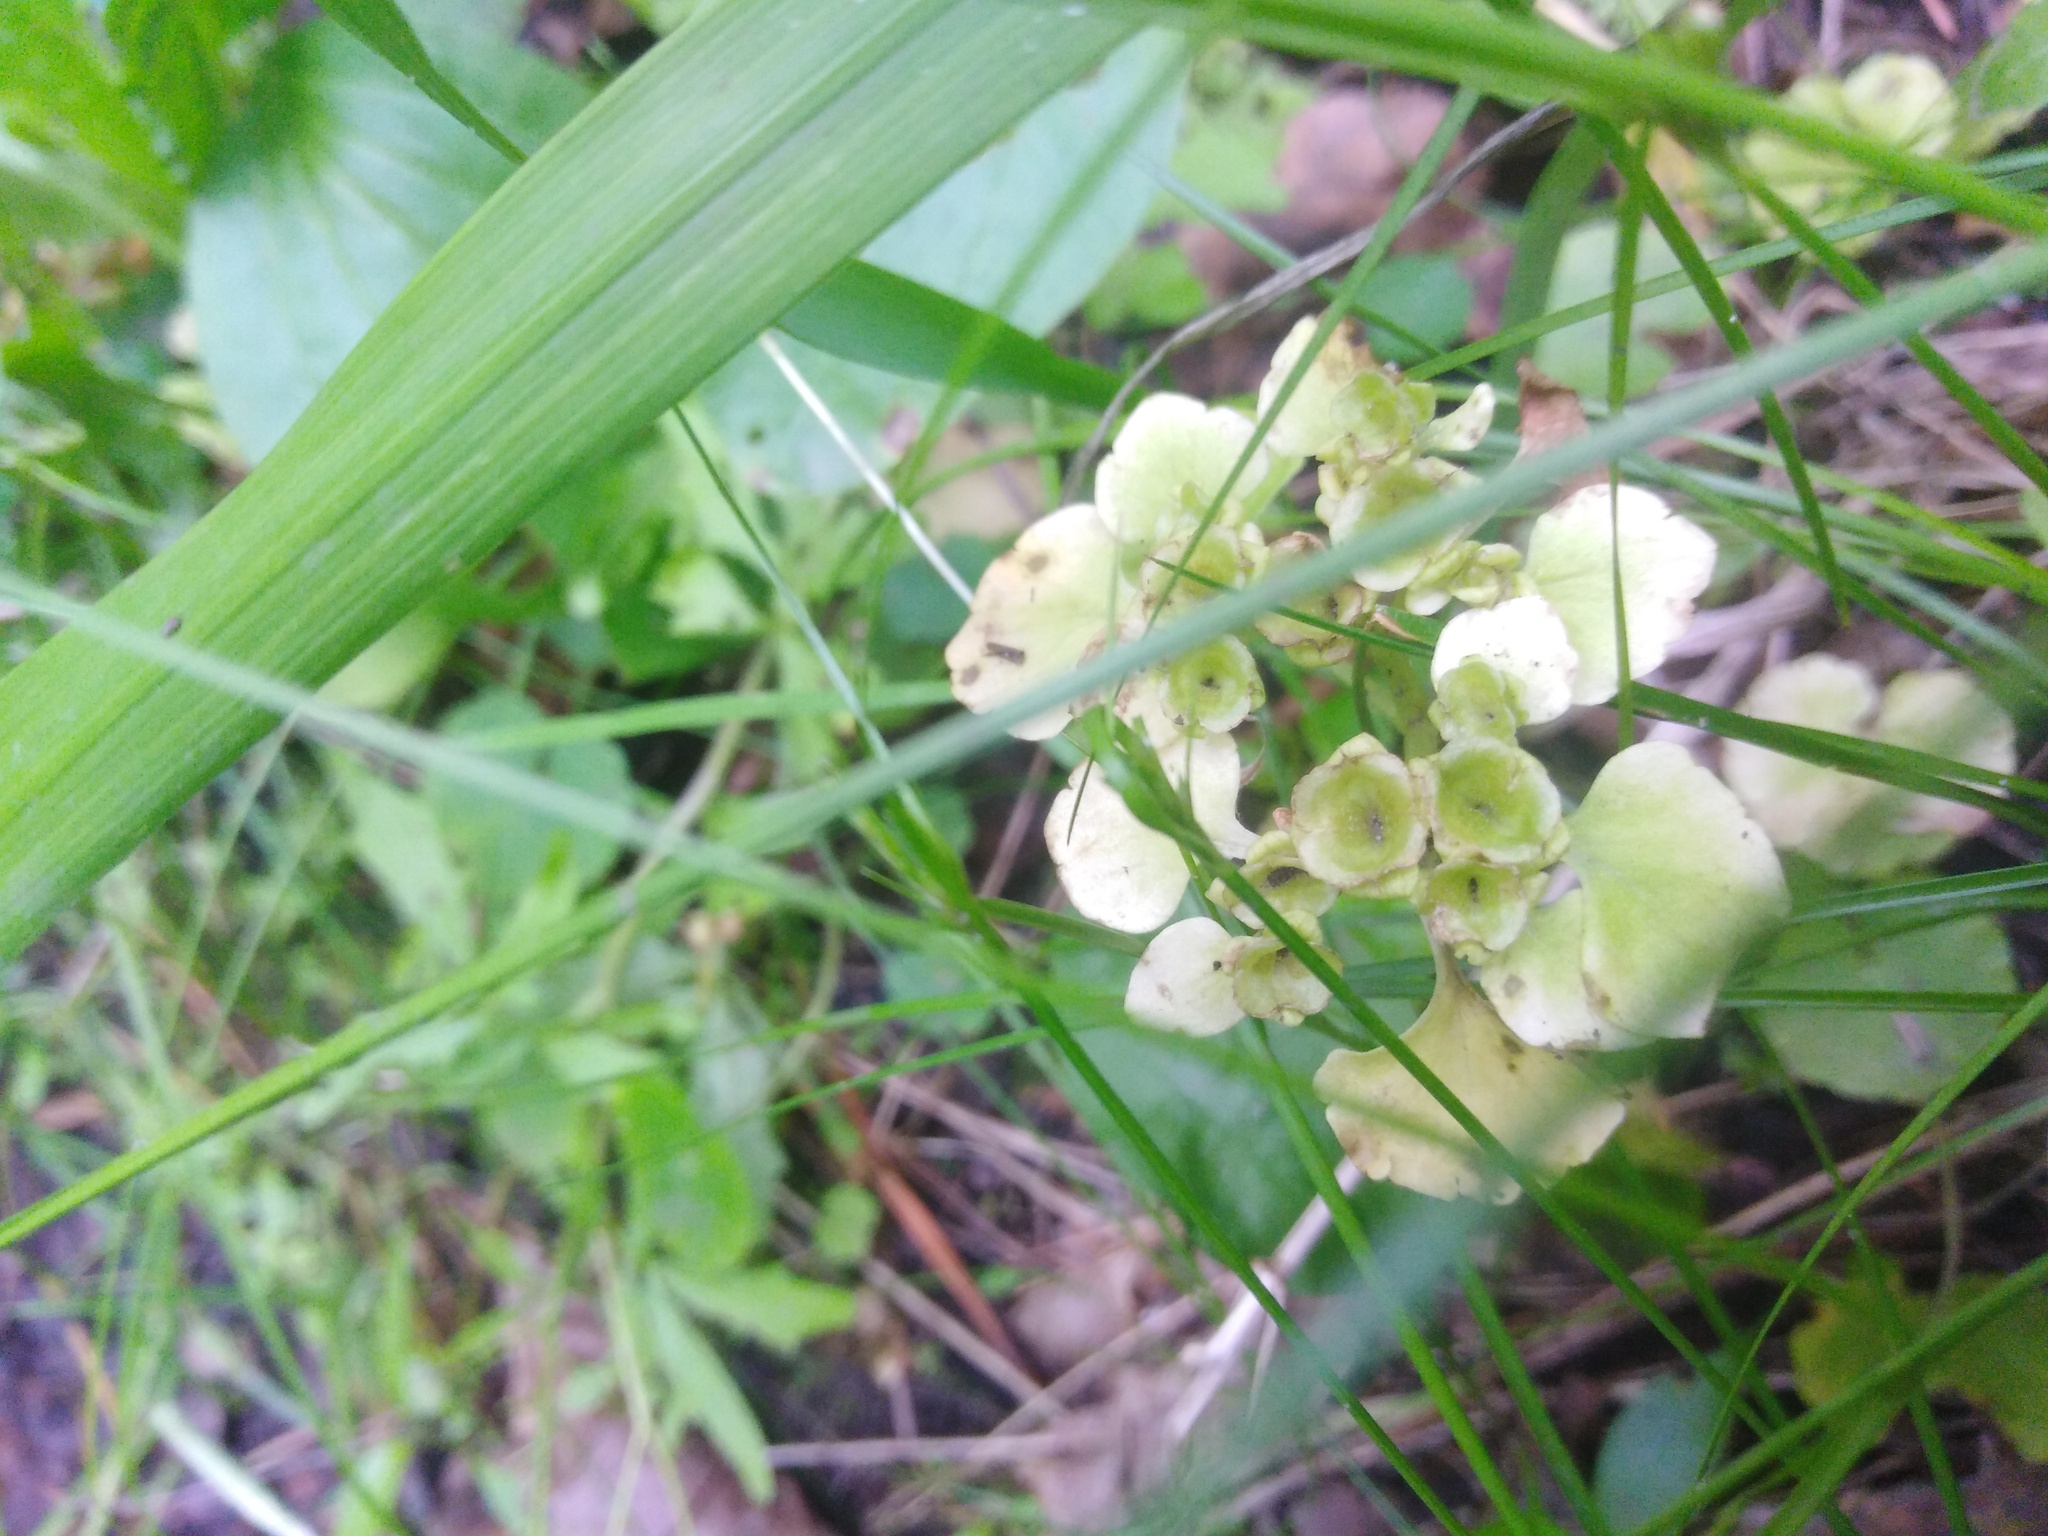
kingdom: Plantae
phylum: Tracheophyta
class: Magnoliopsida
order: Saxifragales
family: Saxifragaceae
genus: Chrysosplenium
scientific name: Chrysosplenium alternifolium
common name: Alternate-leaved golden-saxifrage
